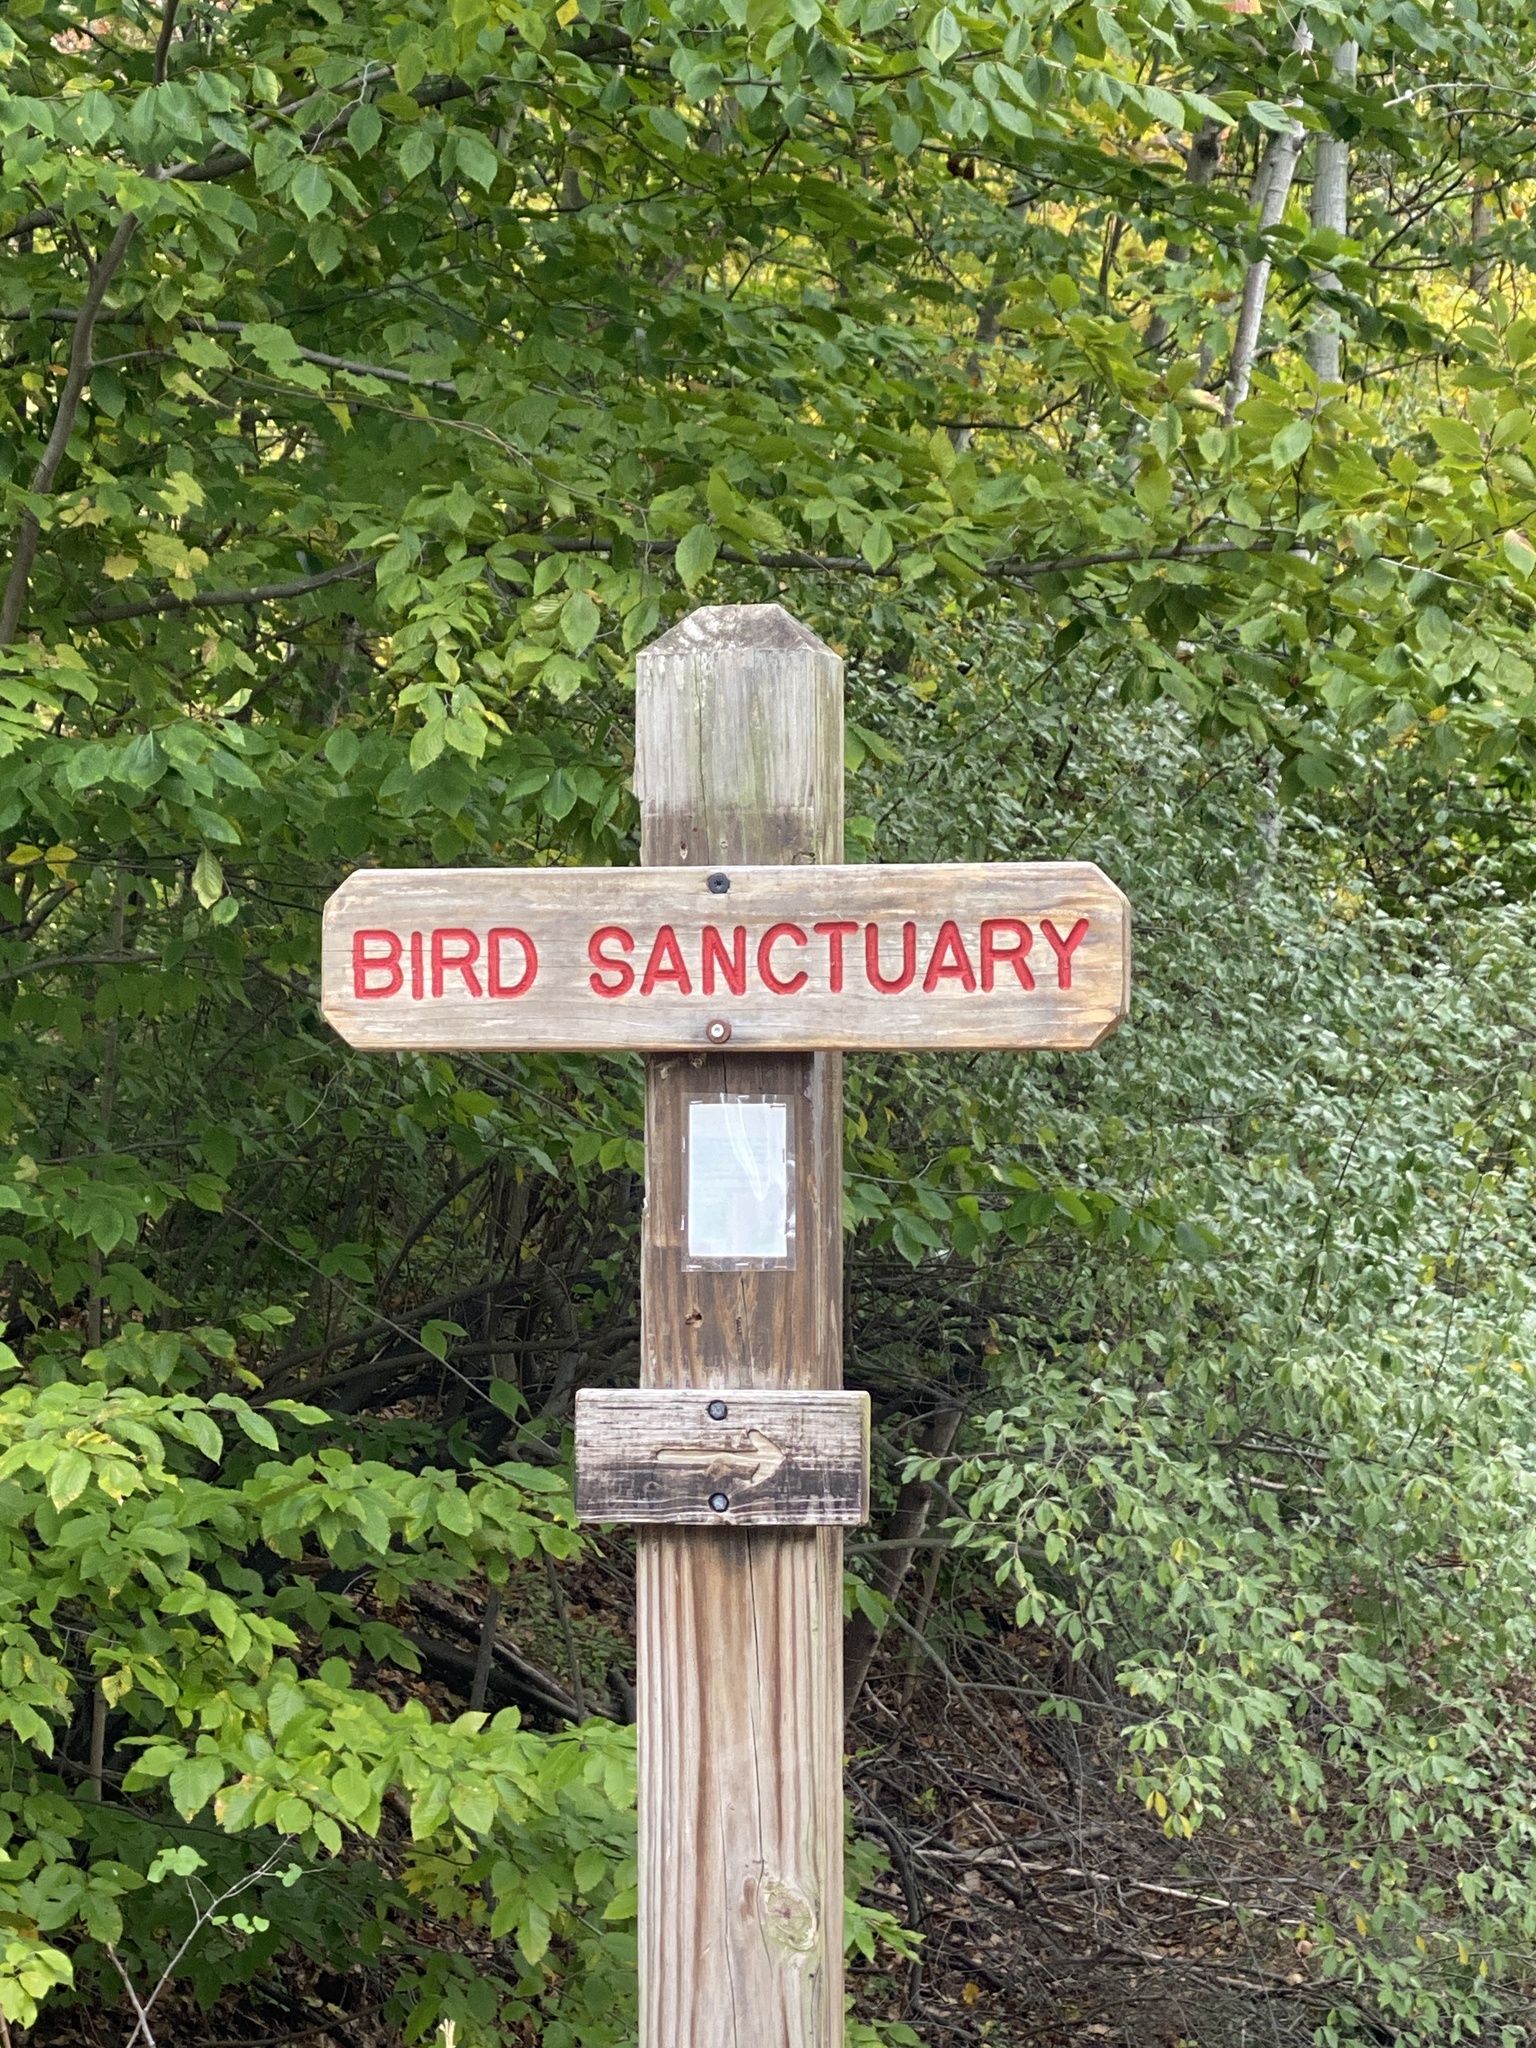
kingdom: Plantae
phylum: Tracheophyta
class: Magnoliopsida
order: Asterales
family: Asteraceae
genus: Symphyotrichum
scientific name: Symphyotrichum novae-angliae
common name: Michaelmas daisy
